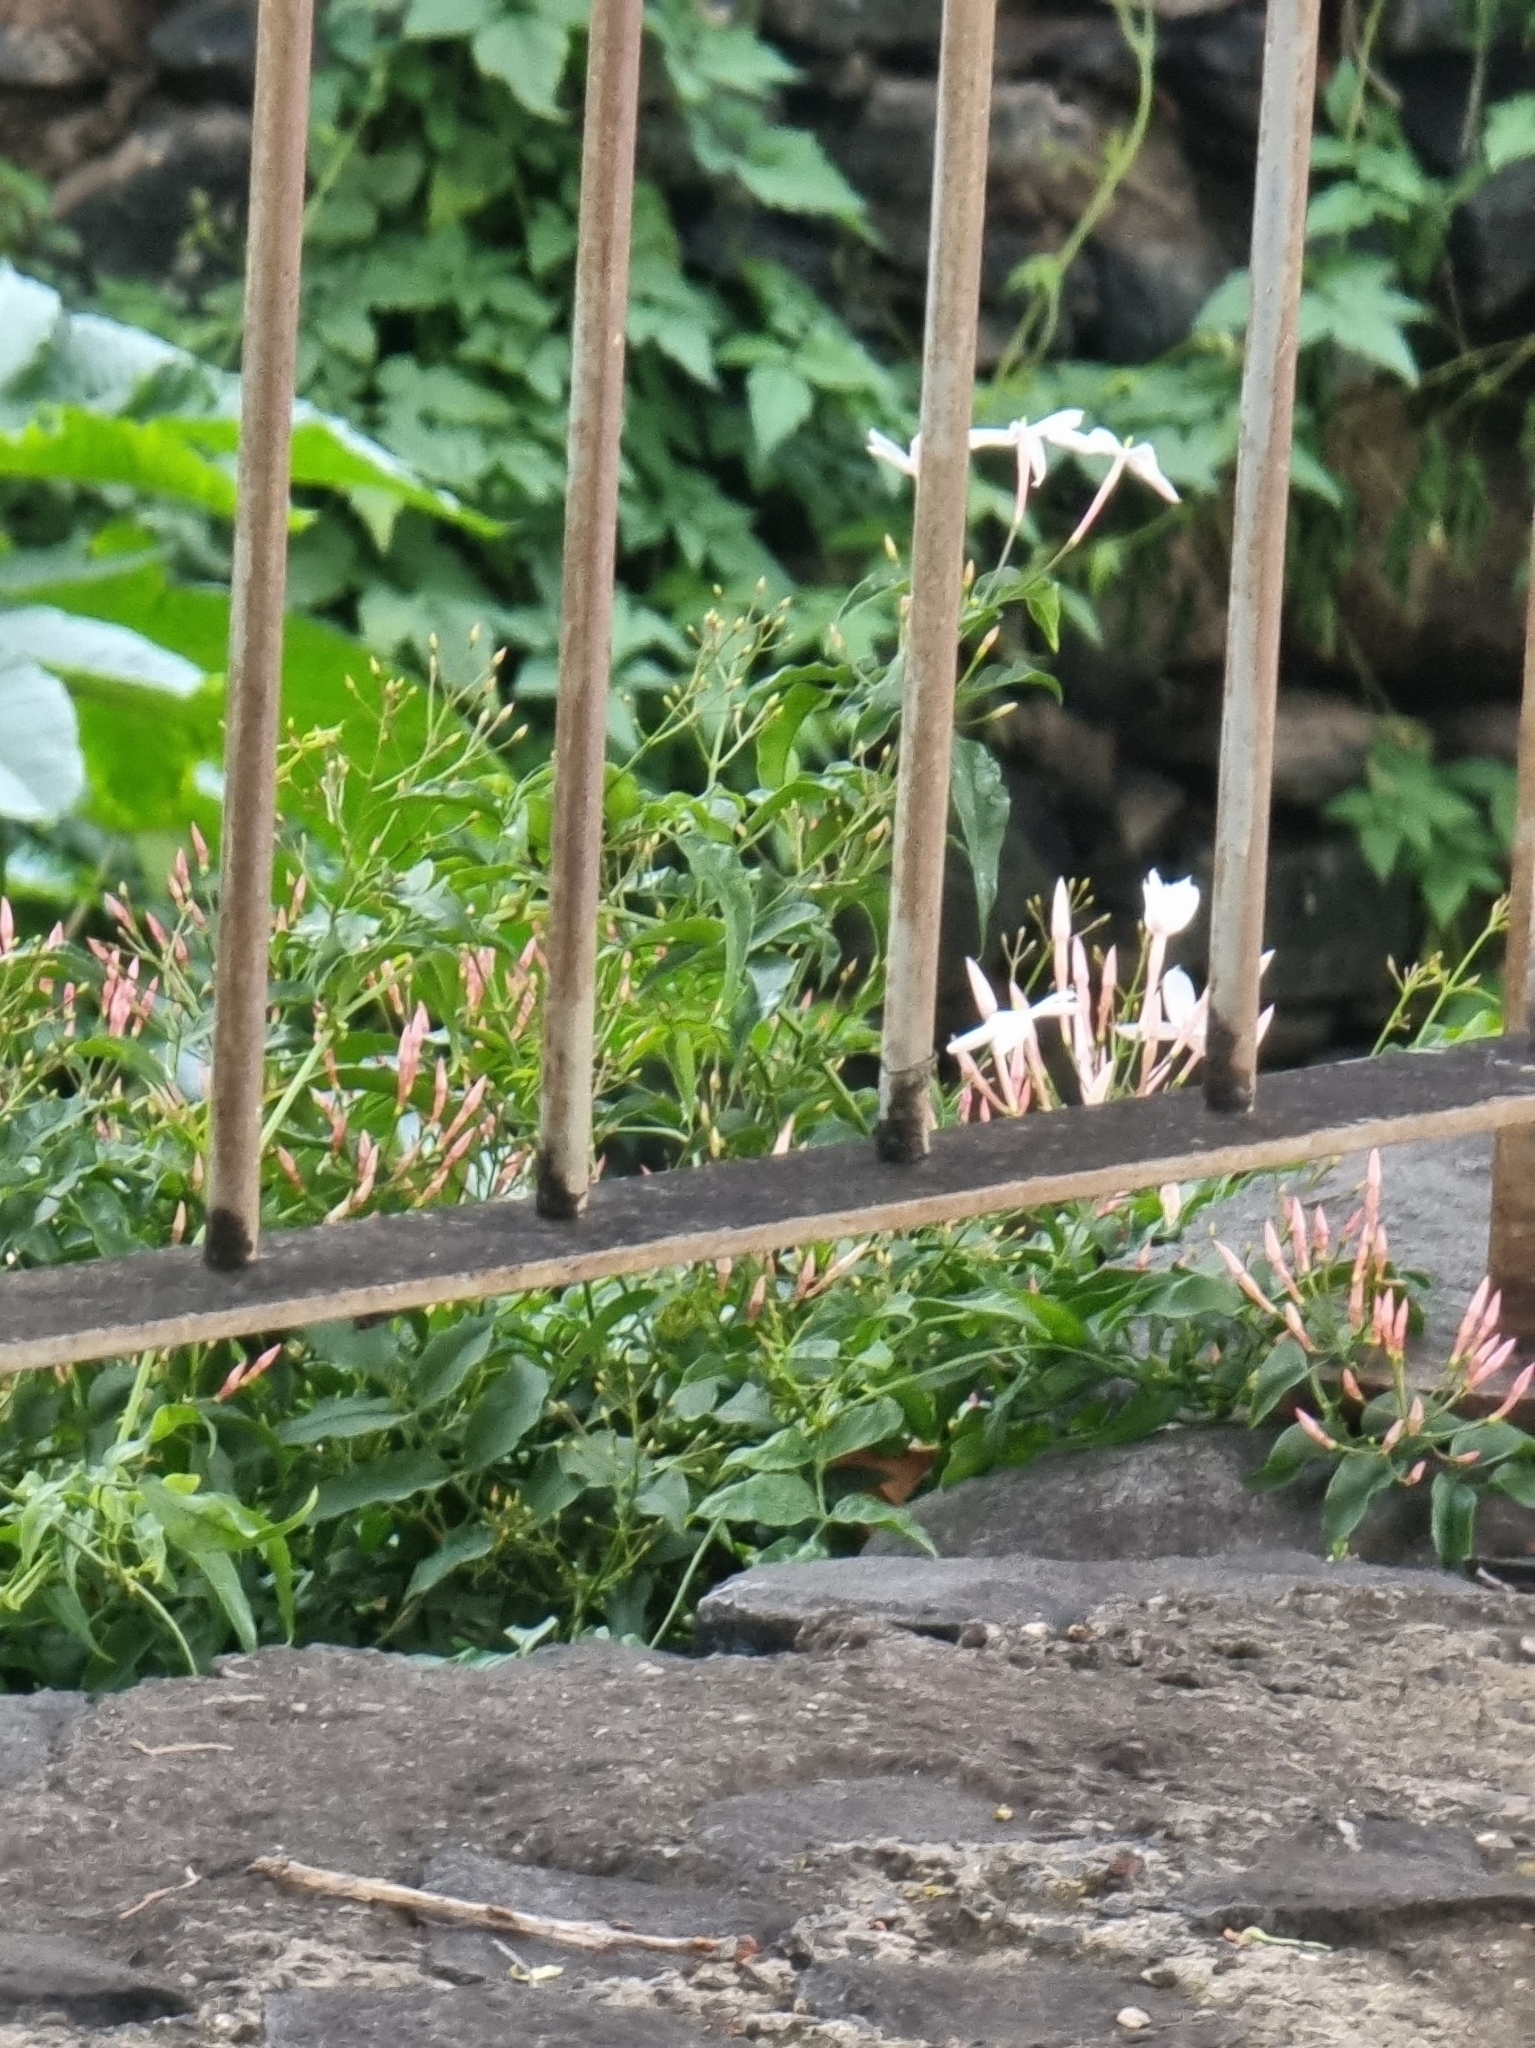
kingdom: Plantae
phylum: Tracheophyta
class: Magnoliopsida
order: Lamiales
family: Oleaceae
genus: Jasminum
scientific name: Jasminum polyanthum
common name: Pink jasmine
